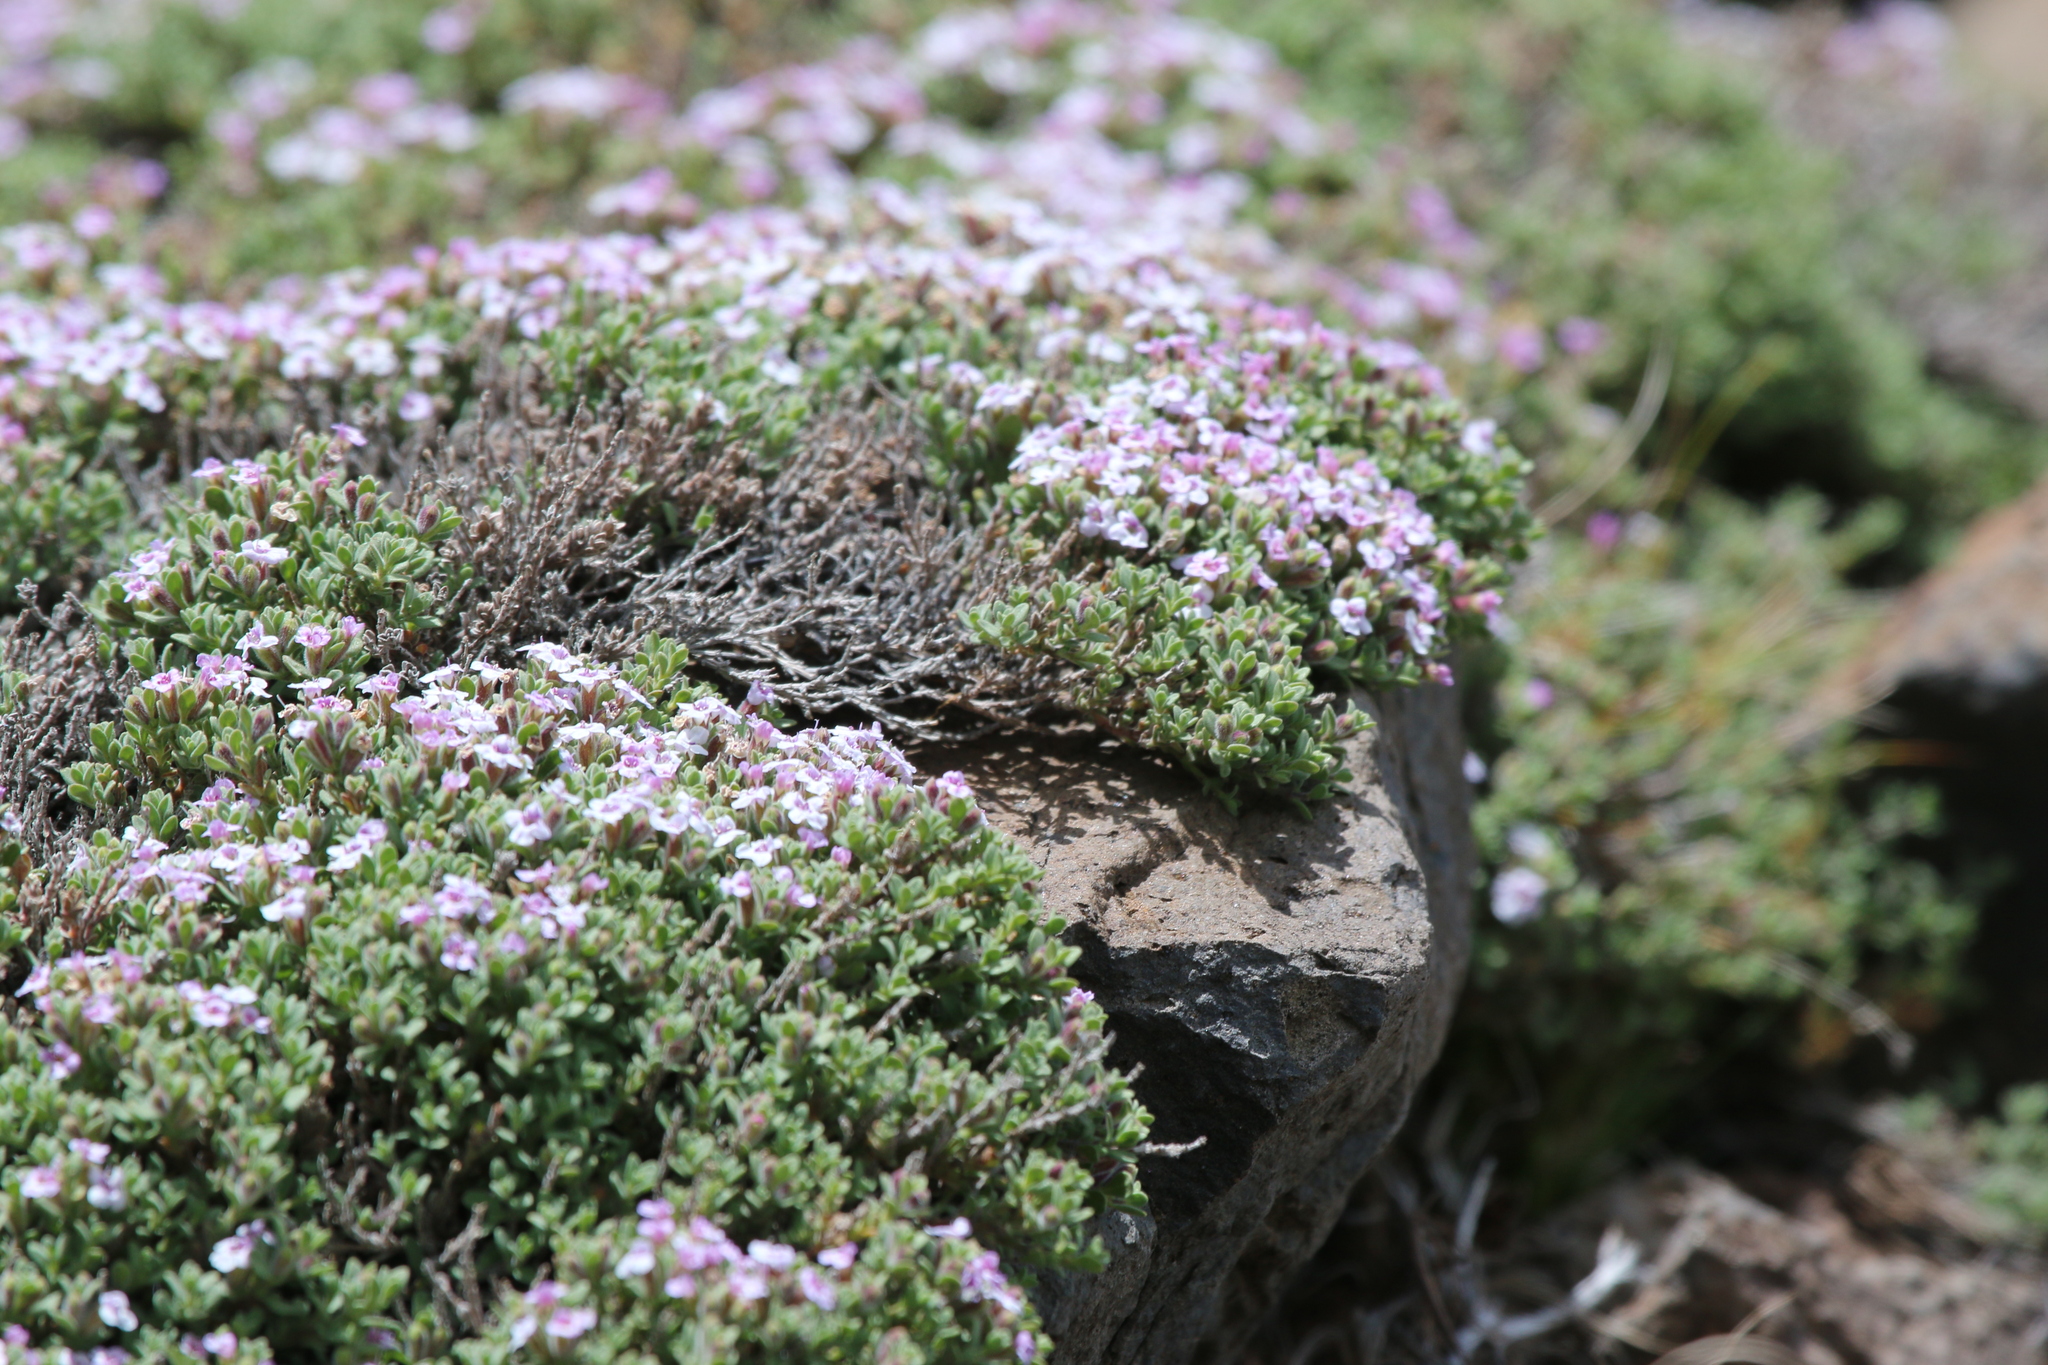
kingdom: Plantae
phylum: Tracheophyta
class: Magnoliopsida
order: Lamiales
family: Lamiaceae
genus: Clinopodium
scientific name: Clinopodium darwinii
